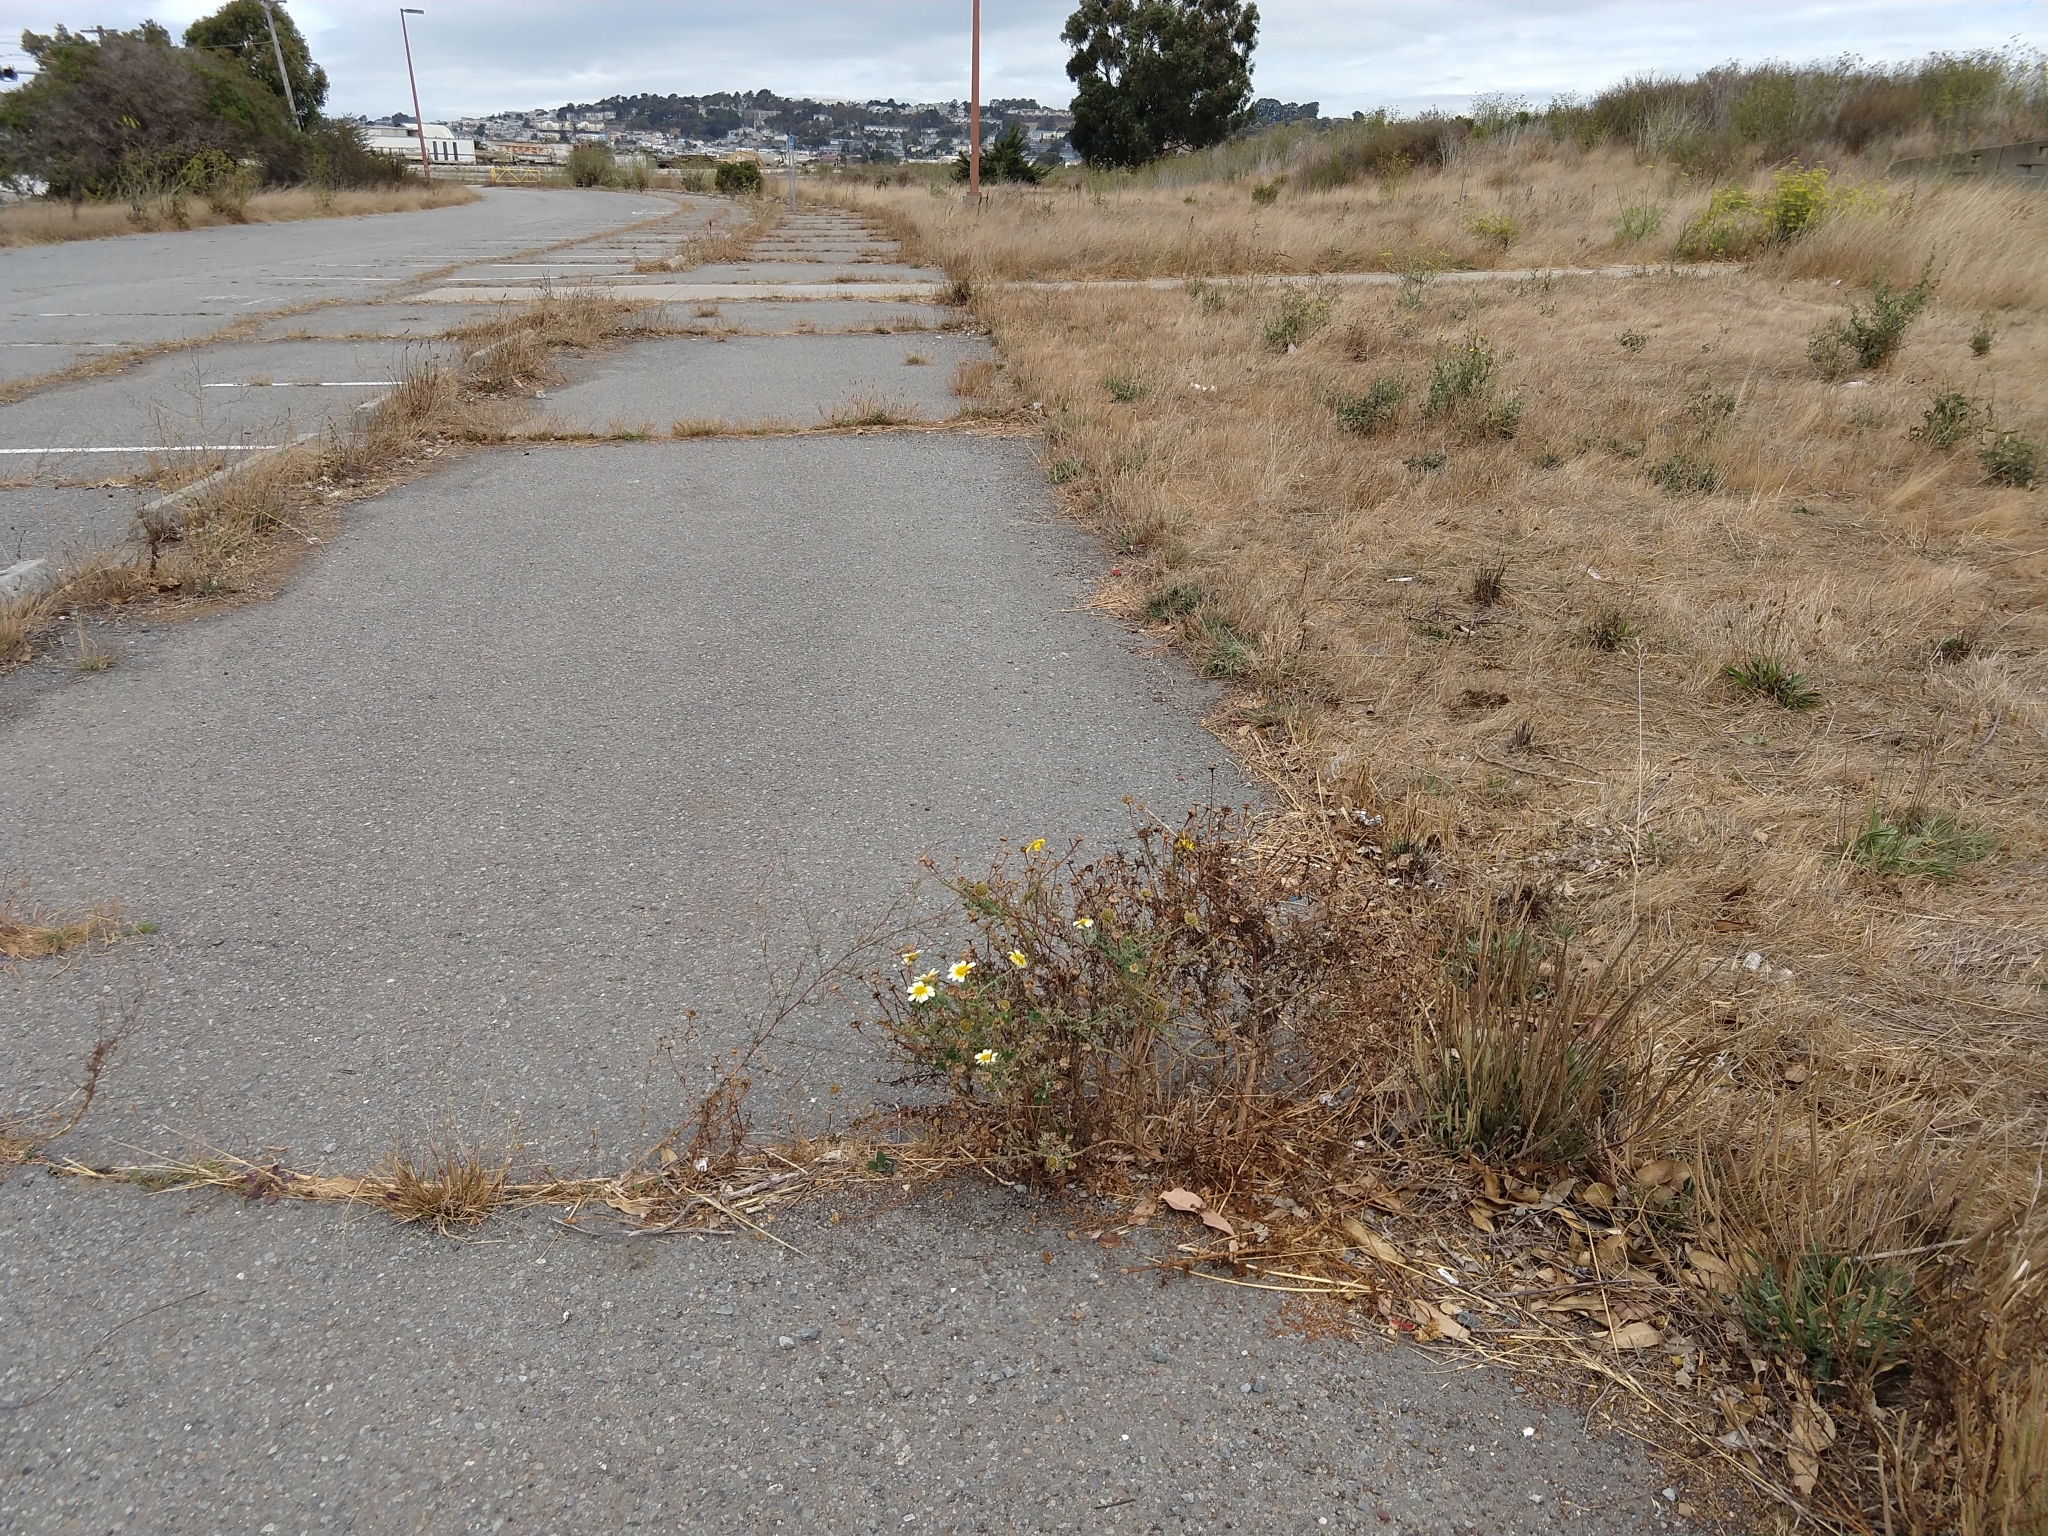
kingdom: Plantae
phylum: Tracheophyta
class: Magnoliopsida
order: Asterales
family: Asteraceae
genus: Glebionis
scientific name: Glebionis coronaria
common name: Crowndaisy
